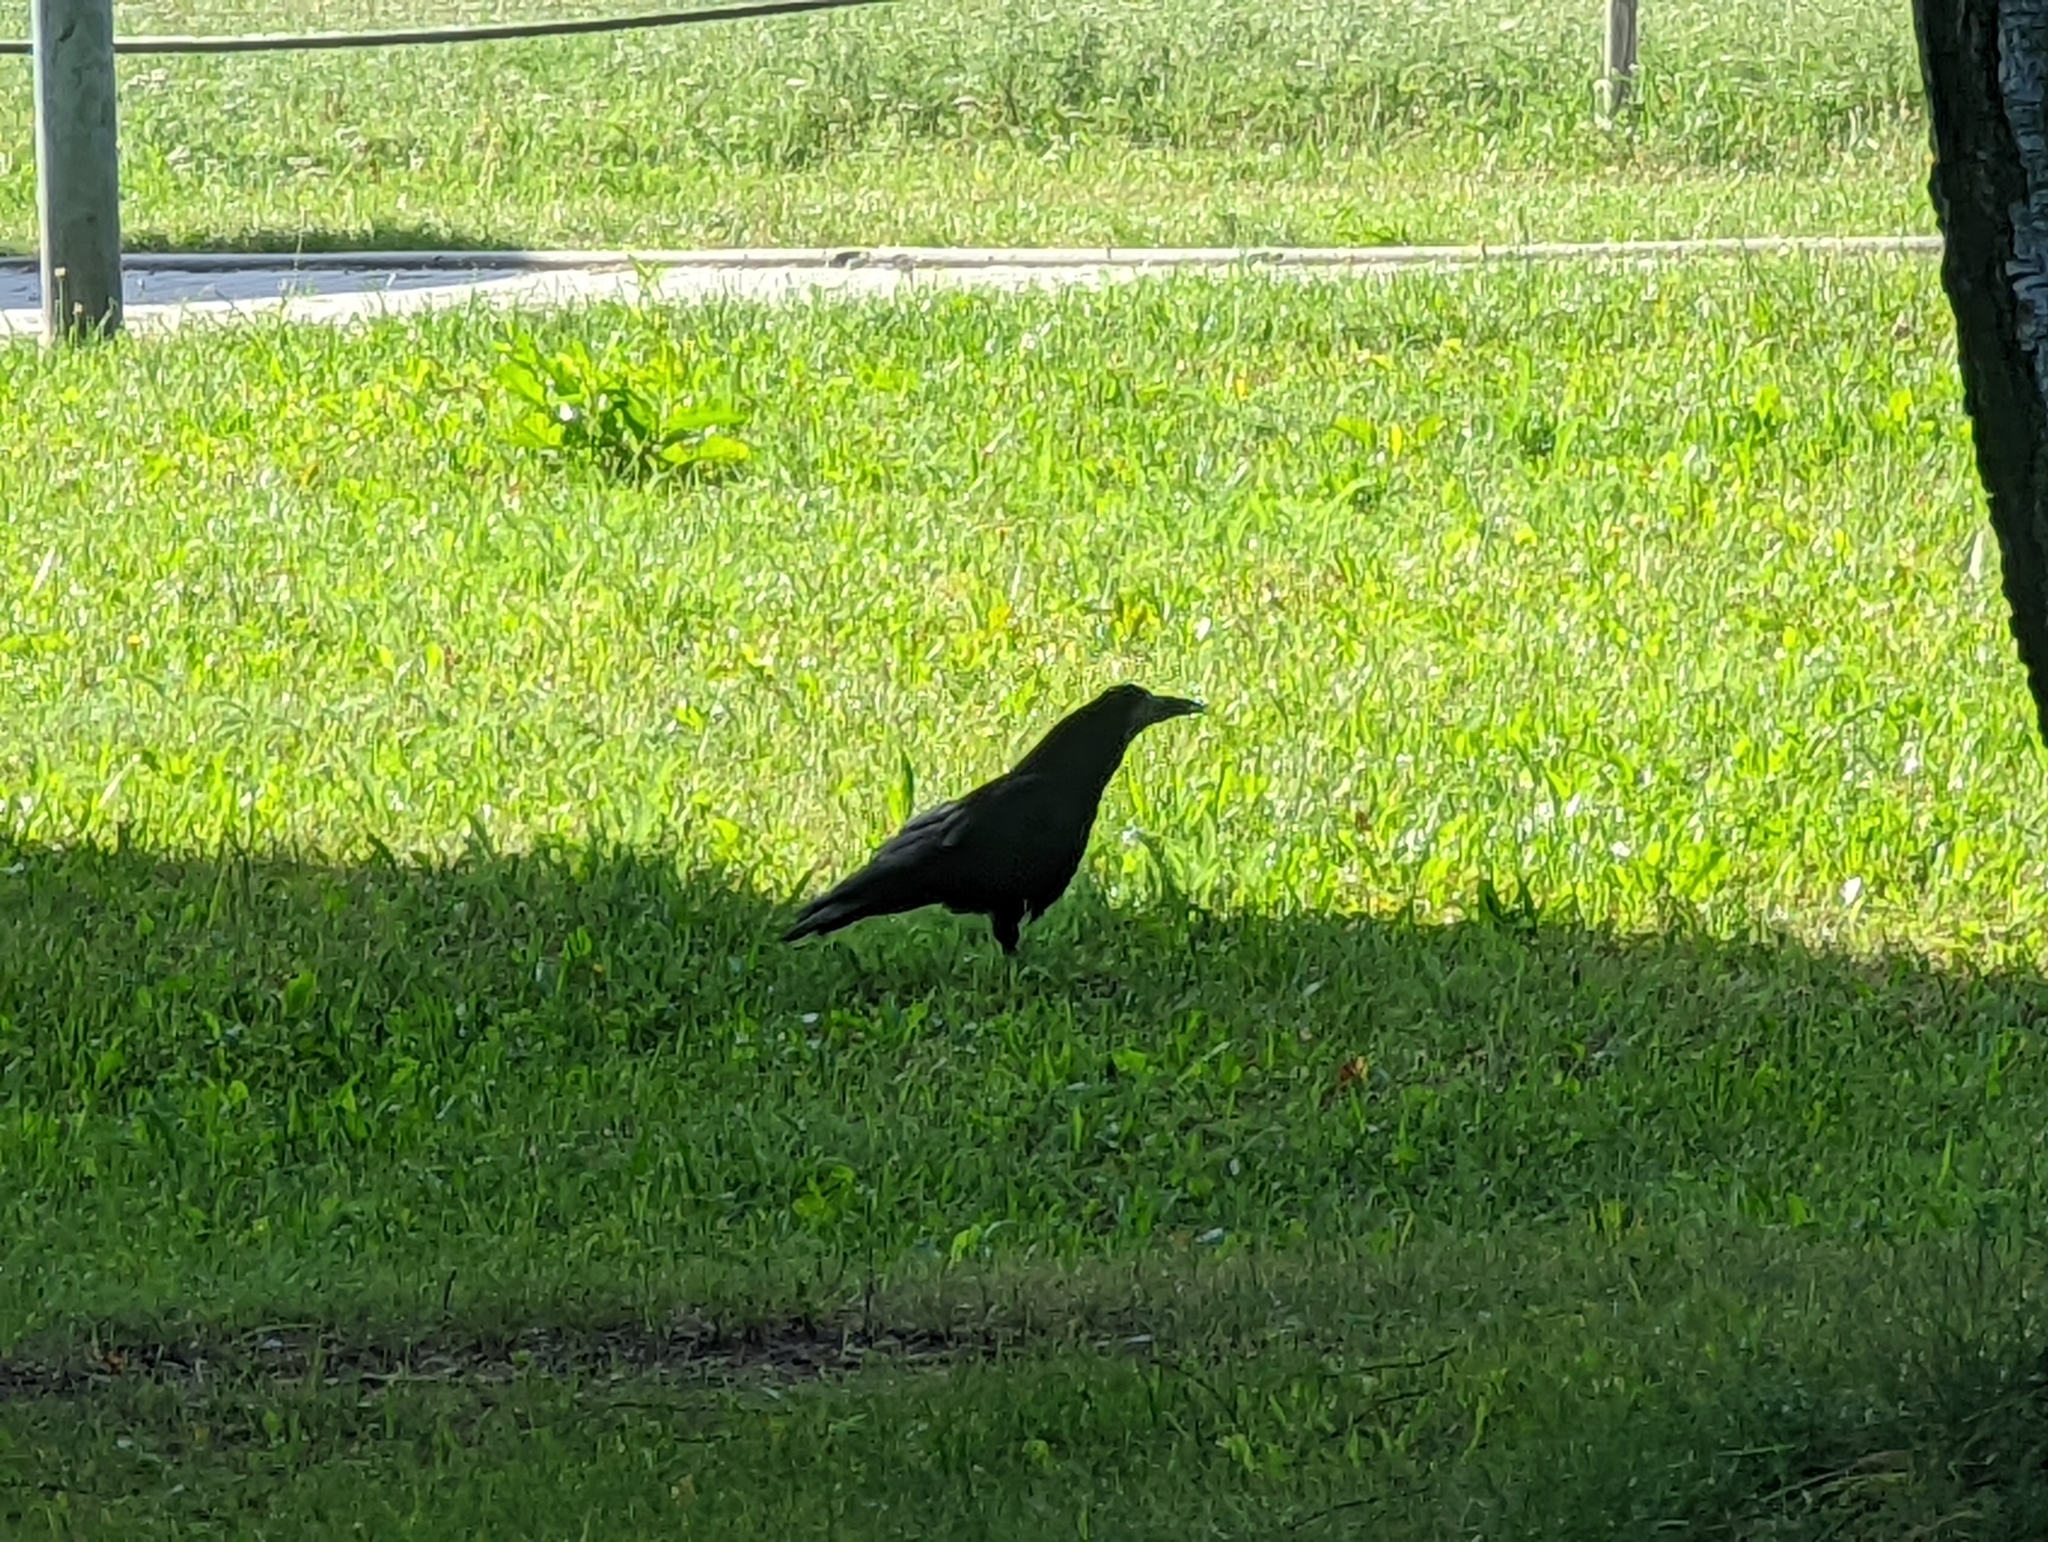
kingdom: Animalia
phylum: Chordata
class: Aves
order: Passeriformes
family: Corvidae
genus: Corvus
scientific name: Corvus frugilegus
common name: Rook
